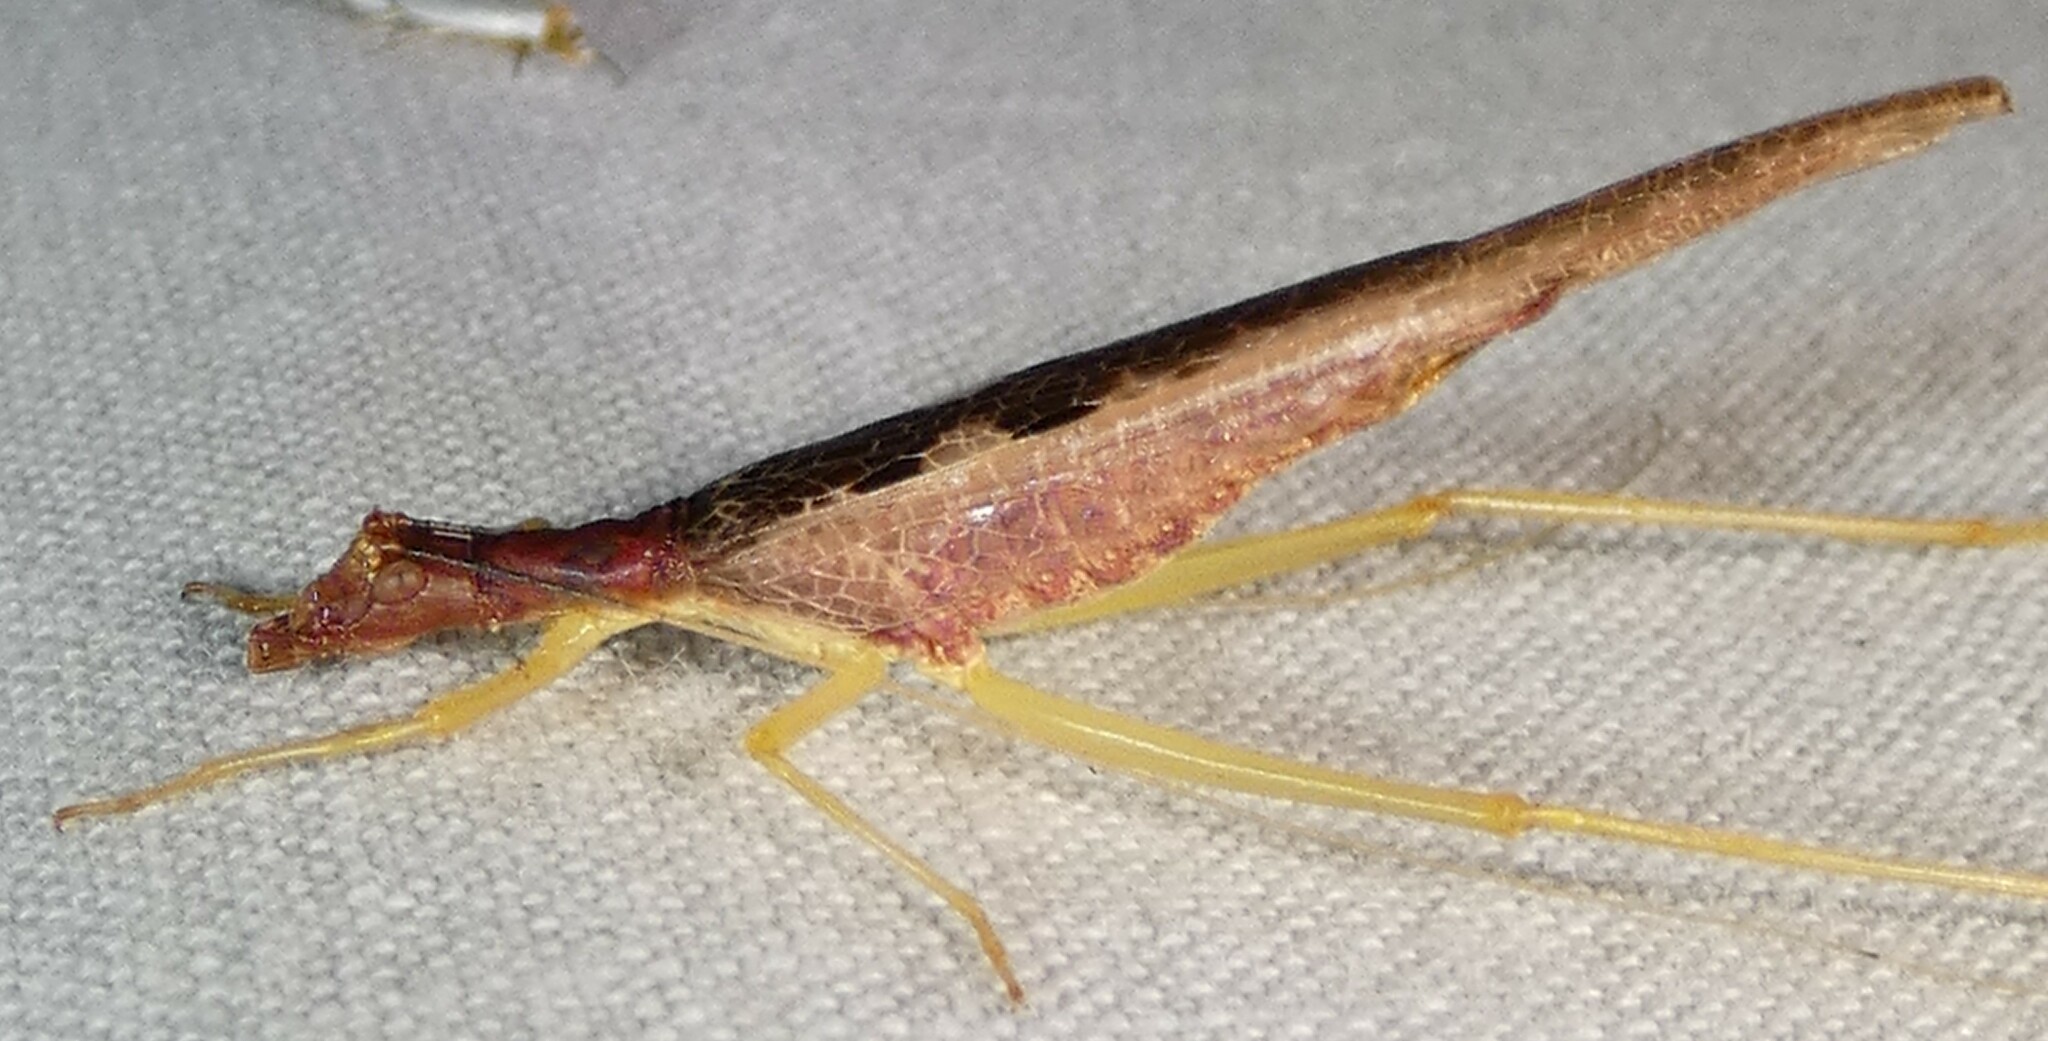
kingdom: Animalia
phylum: Arthropoda
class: Insecta
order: Orthoptera
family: Gryllidae
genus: Neoxabea
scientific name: Neoxabea bipunctata
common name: Two-spotted tree cricket
